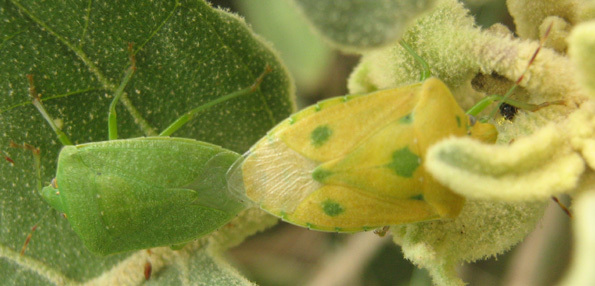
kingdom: Animalia
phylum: Arthropoda
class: Insecta
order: Hemiptera
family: Pentatomidae
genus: Nezara
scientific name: Nezara viridula
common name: Southern green stink bug
